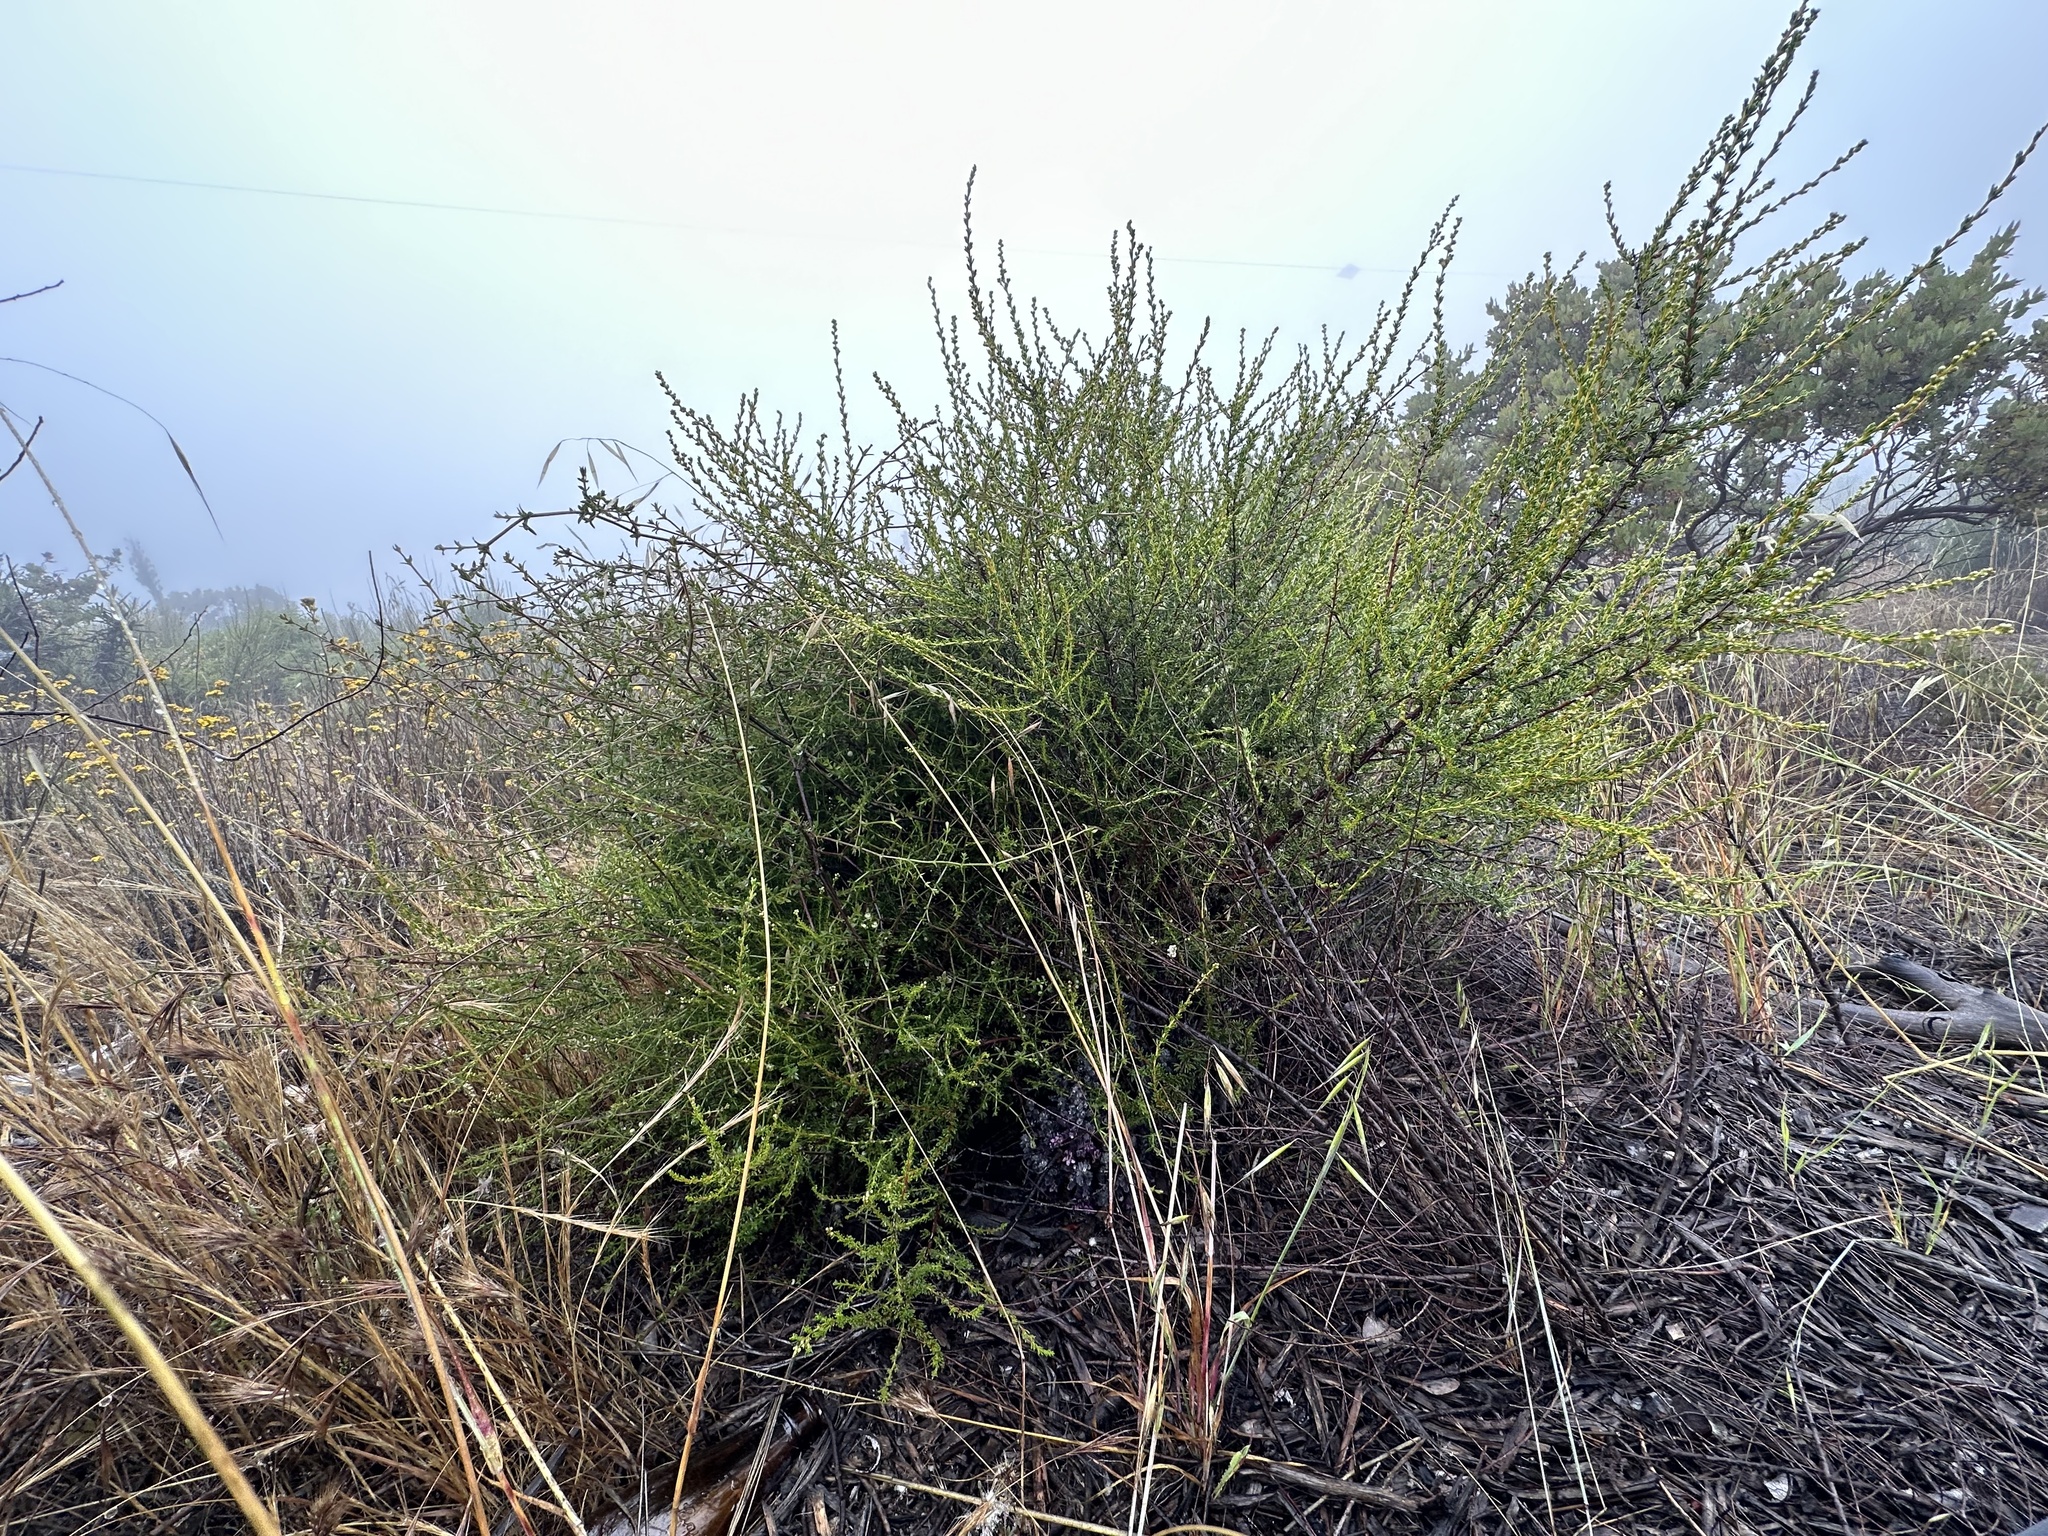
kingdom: Plantae
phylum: Tracheophyta
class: Magnoliopsida
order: Lamiales
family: Orobanchaceae
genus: Aphyllon
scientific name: Aphyllon tuberosum
